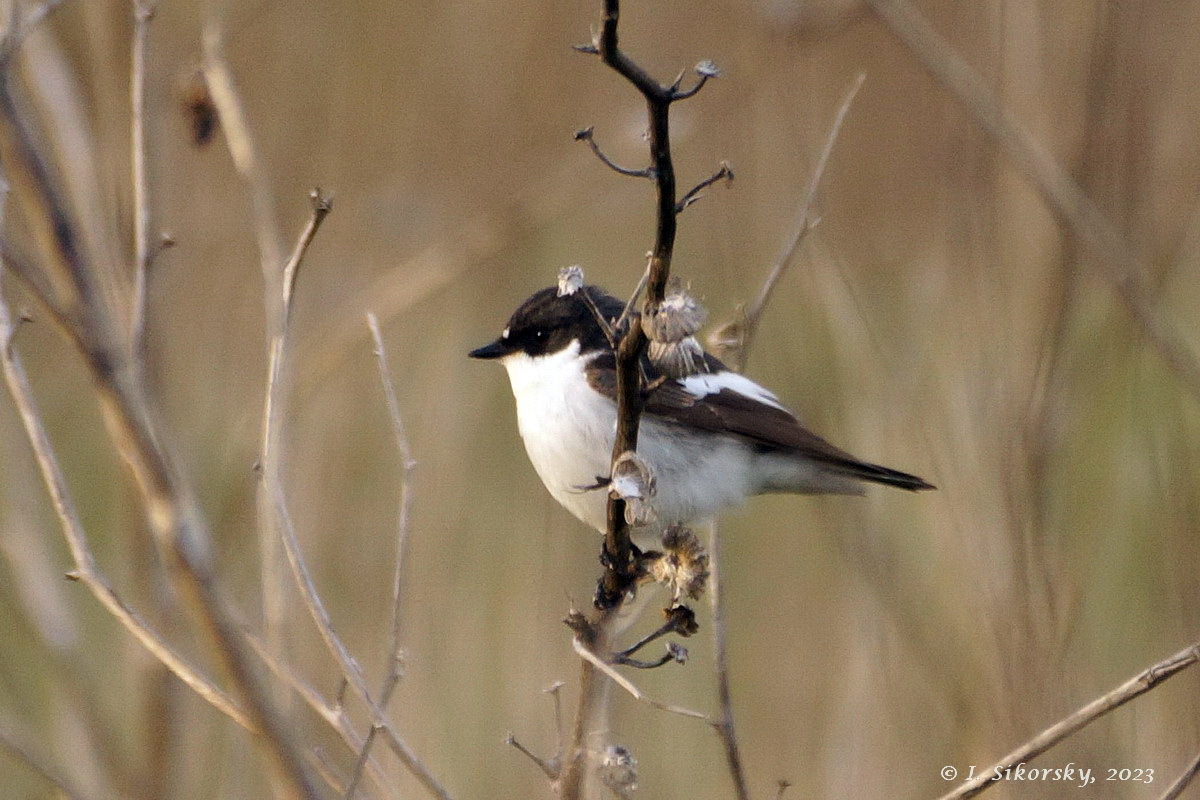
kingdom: Animalia
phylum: Chordata
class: Aves
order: Passeriformes
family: Muscicapidae
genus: Ficedula
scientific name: Ficedula hypoleuca
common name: European pied flycatcher
